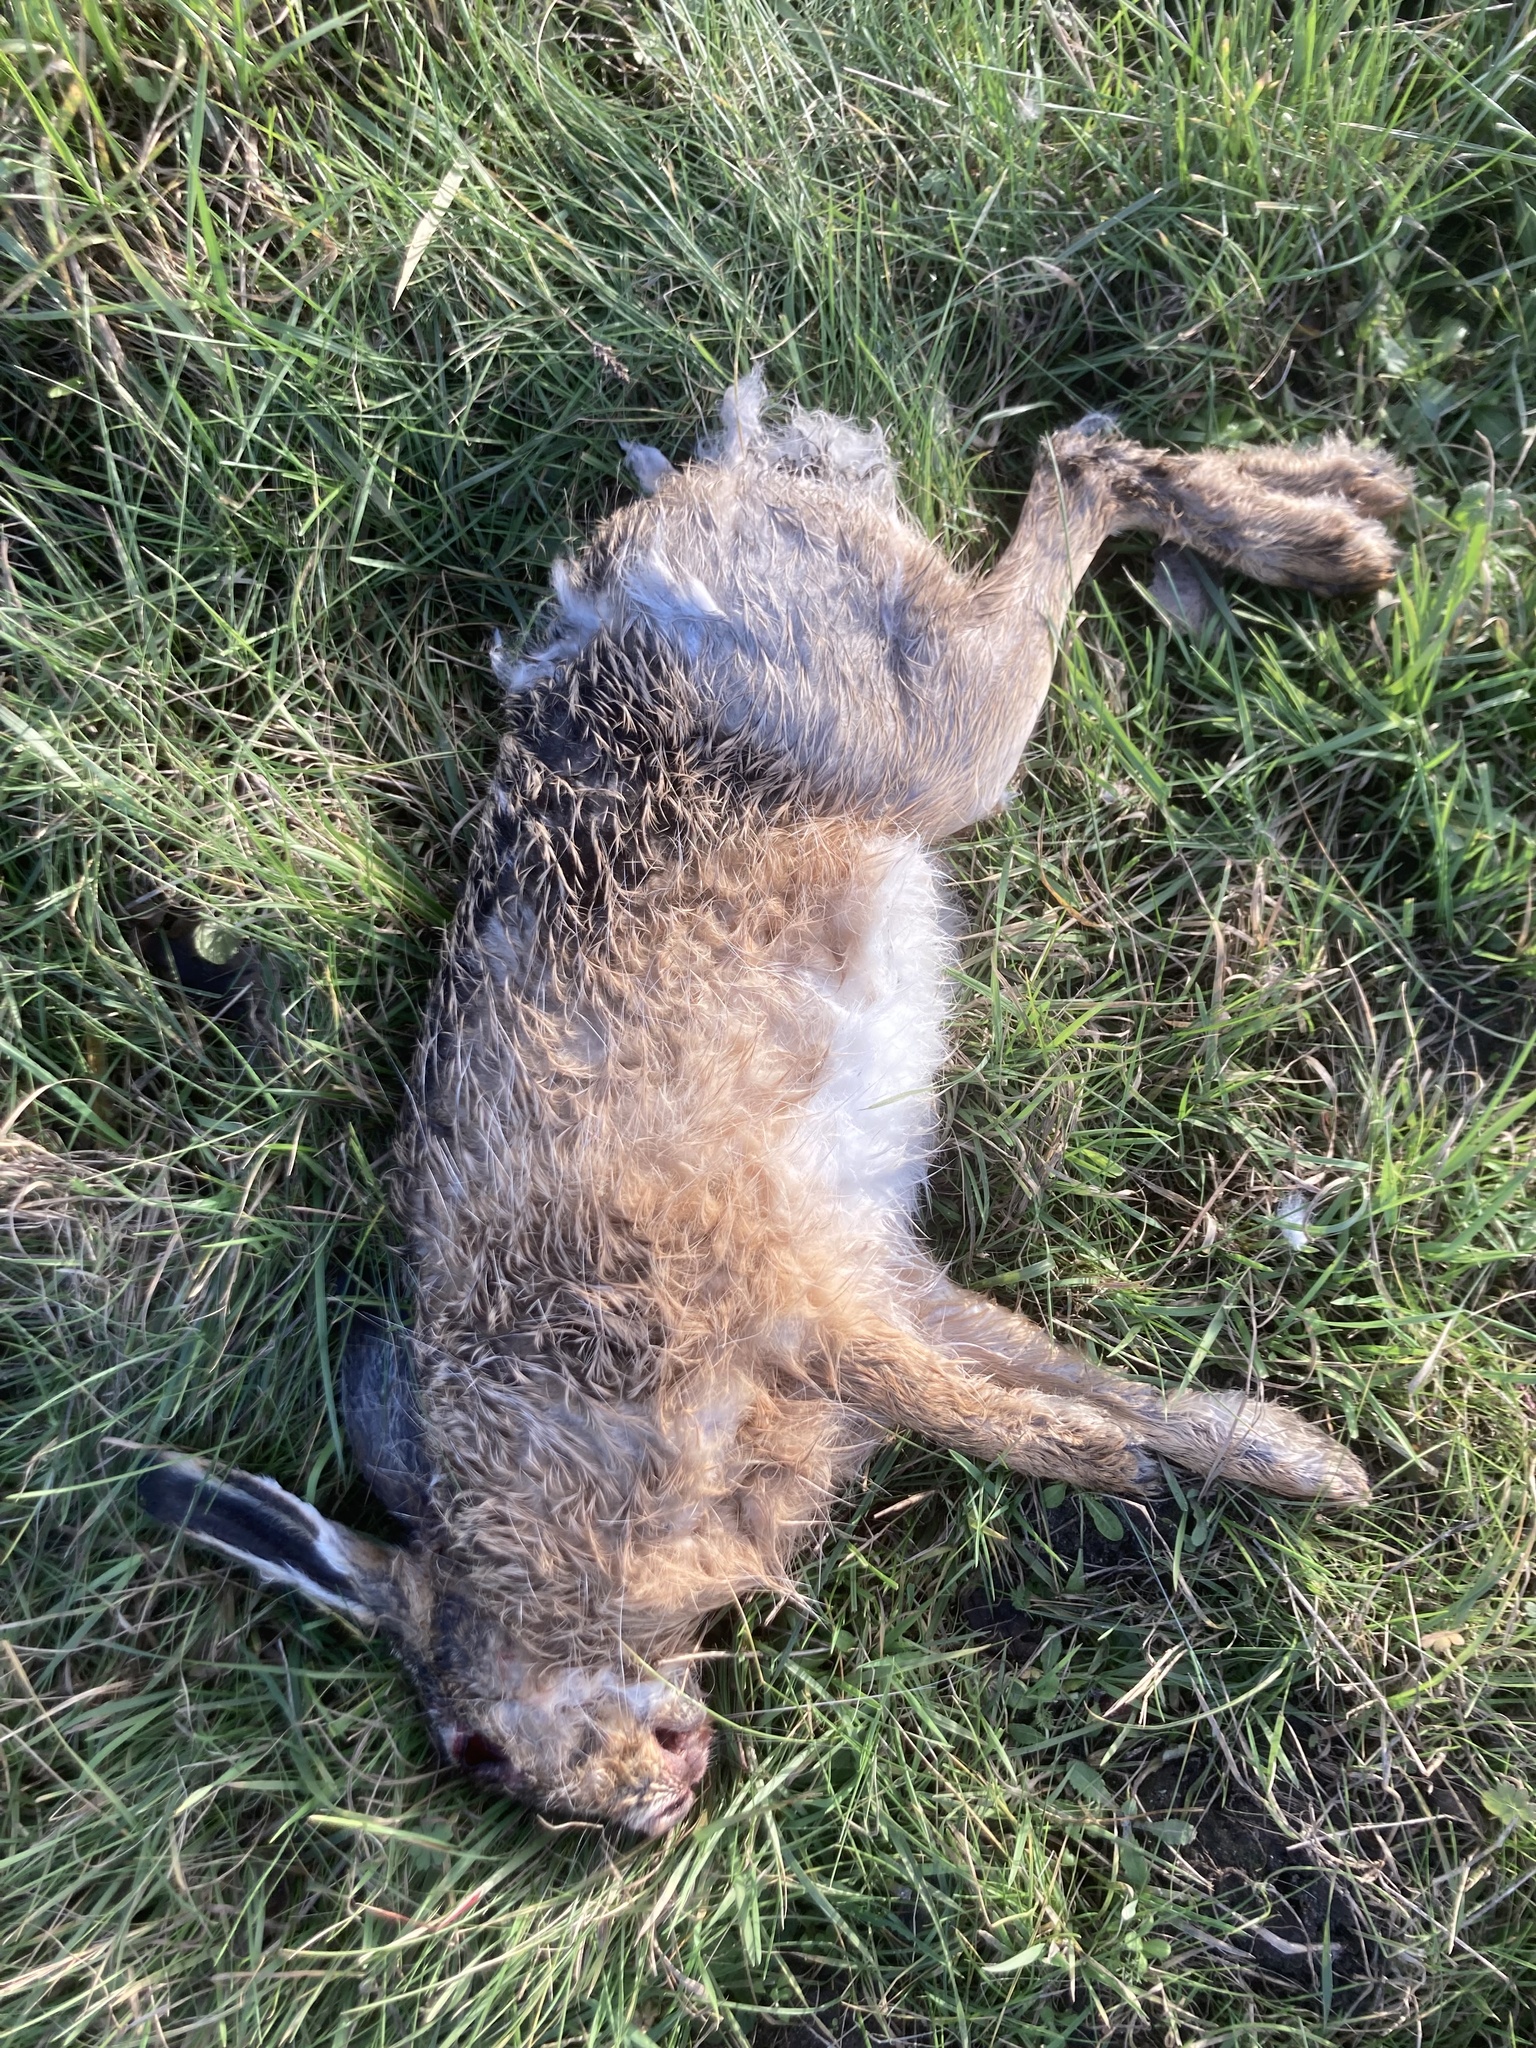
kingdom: Animalia
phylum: Chordata
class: Mammalia
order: Lagomorpha
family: Leporidae
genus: Lepus
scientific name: Lepus europaeus
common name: European hare
